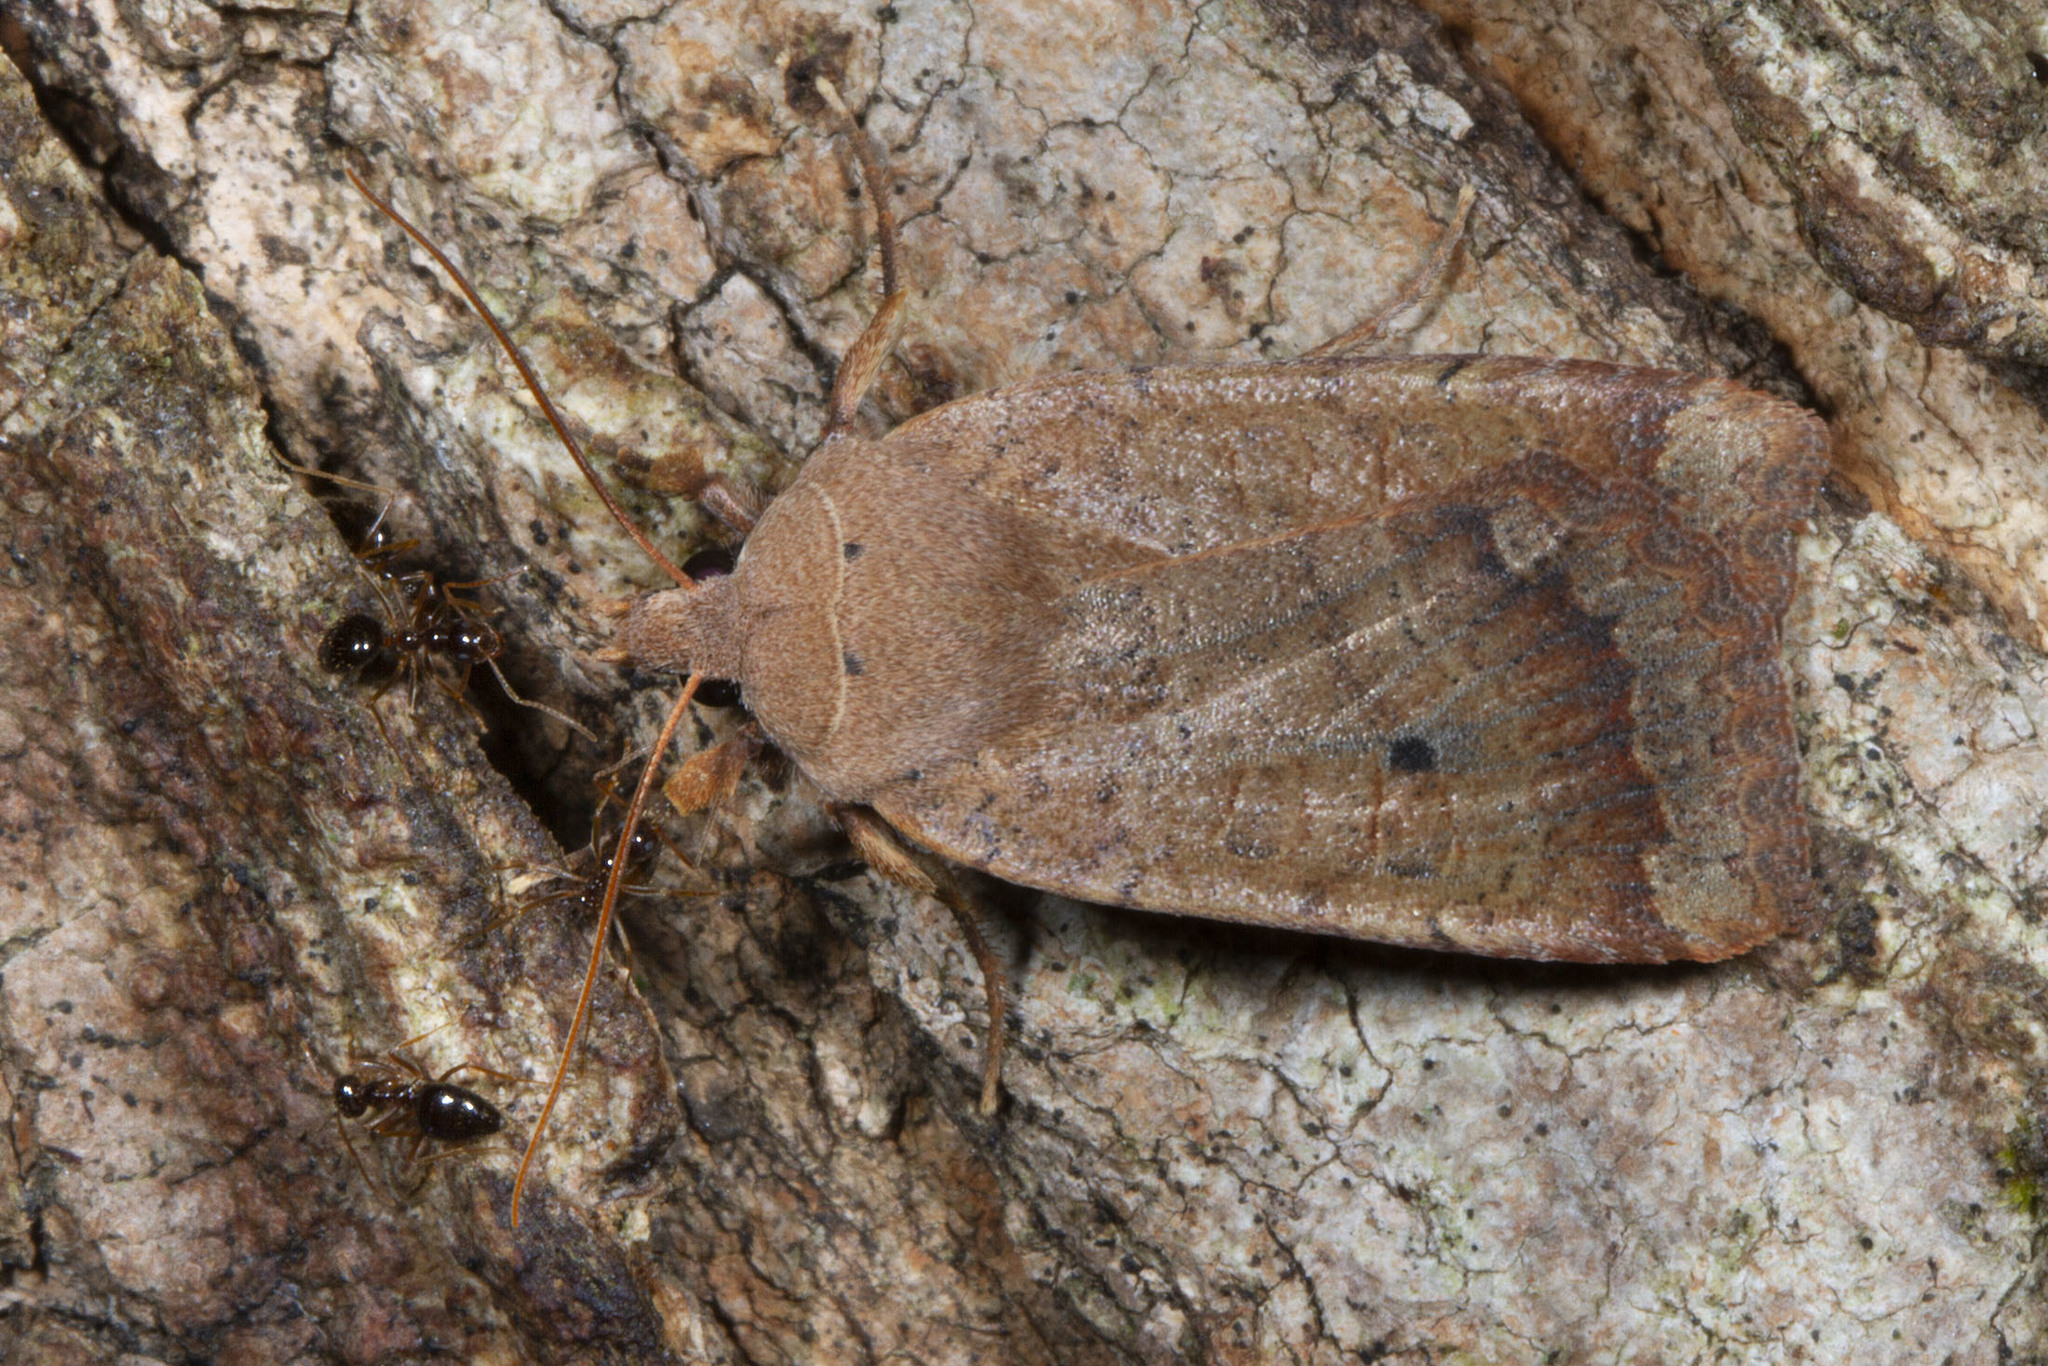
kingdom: Animalia
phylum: Arthropoda
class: Insecta
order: Lepidoptera
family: Noctuidae
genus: Sericaglaea
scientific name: Sericaglaea signata
